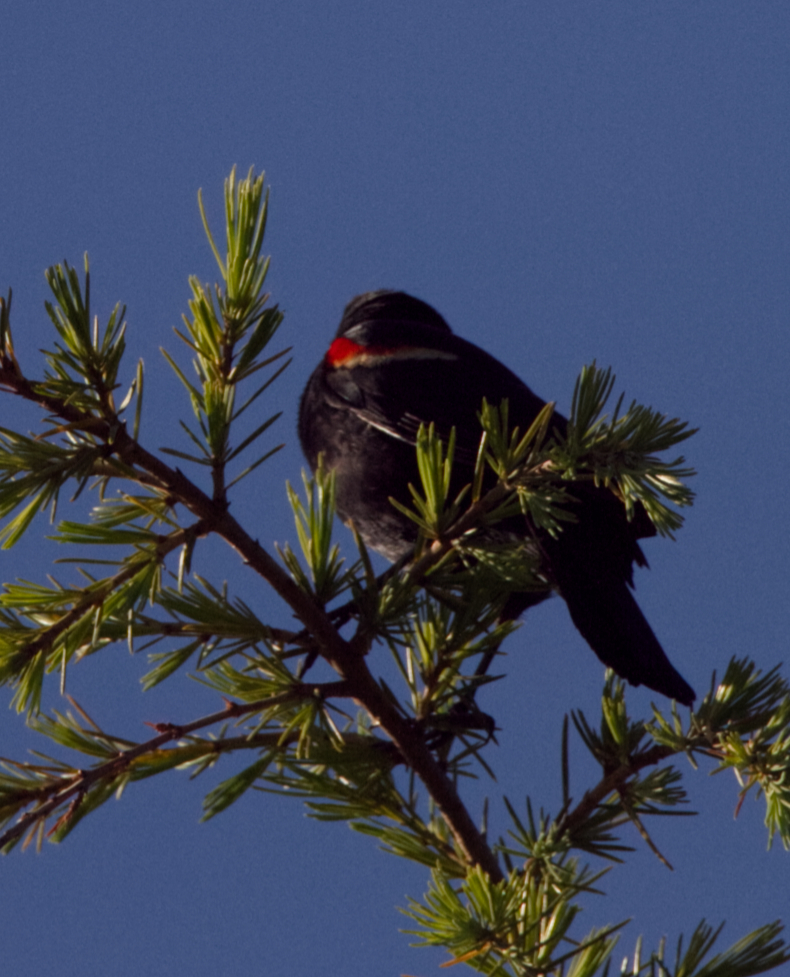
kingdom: Animalia
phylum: Chordata
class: Aves
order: Passeriformes
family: Icteridae
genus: Agelaius
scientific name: Agelaius phoeniceus
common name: Red-winged blackbird
